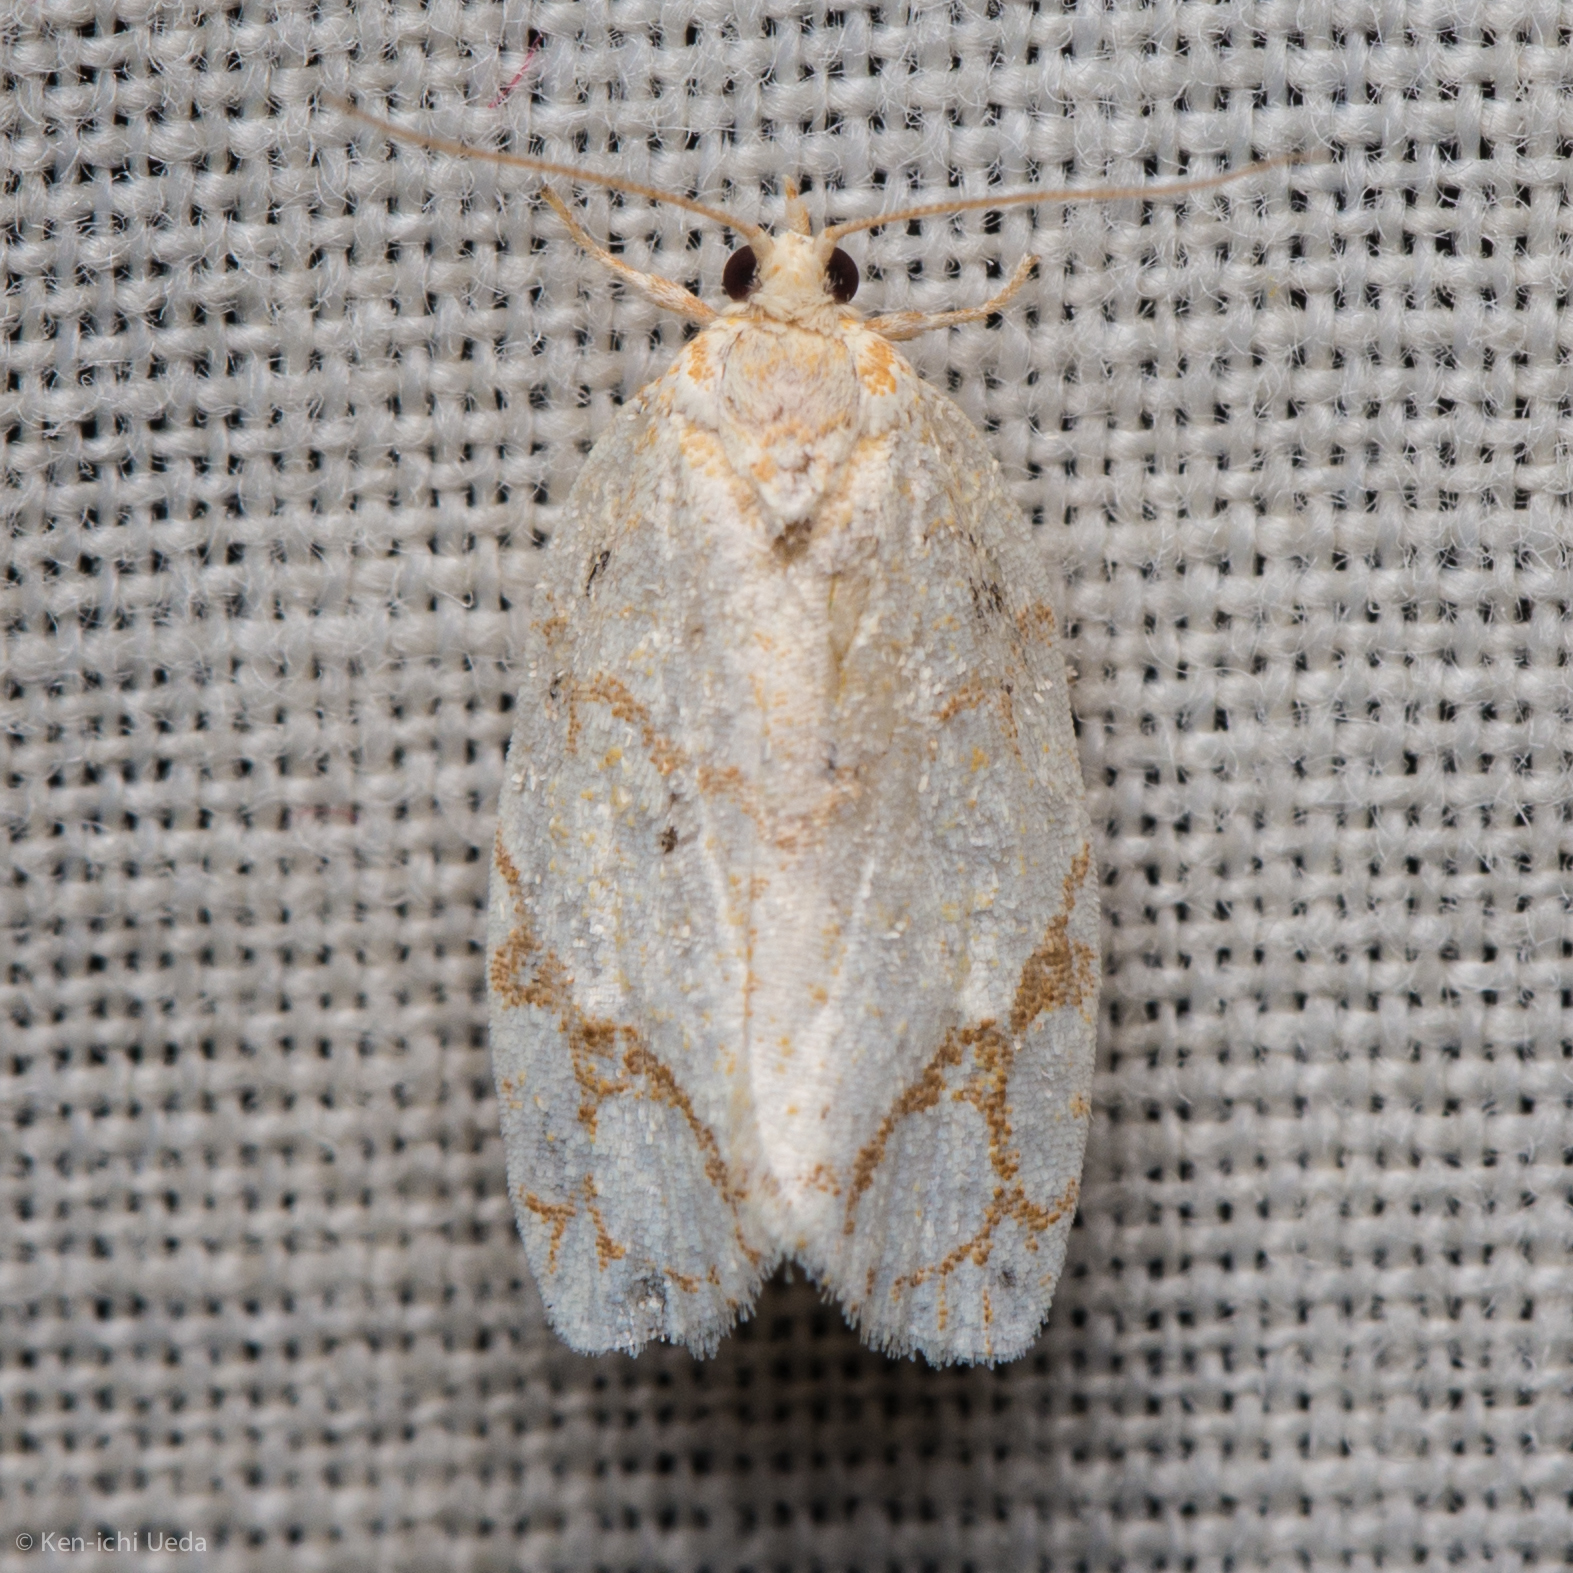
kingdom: Animalia
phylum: Arthropoda
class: Insecta
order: Lepidoptera
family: Tortricidae
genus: Argyrotaenia
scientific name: Argyrotaenia quercifoliana
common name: Yellow-winged oak leafroller moth
